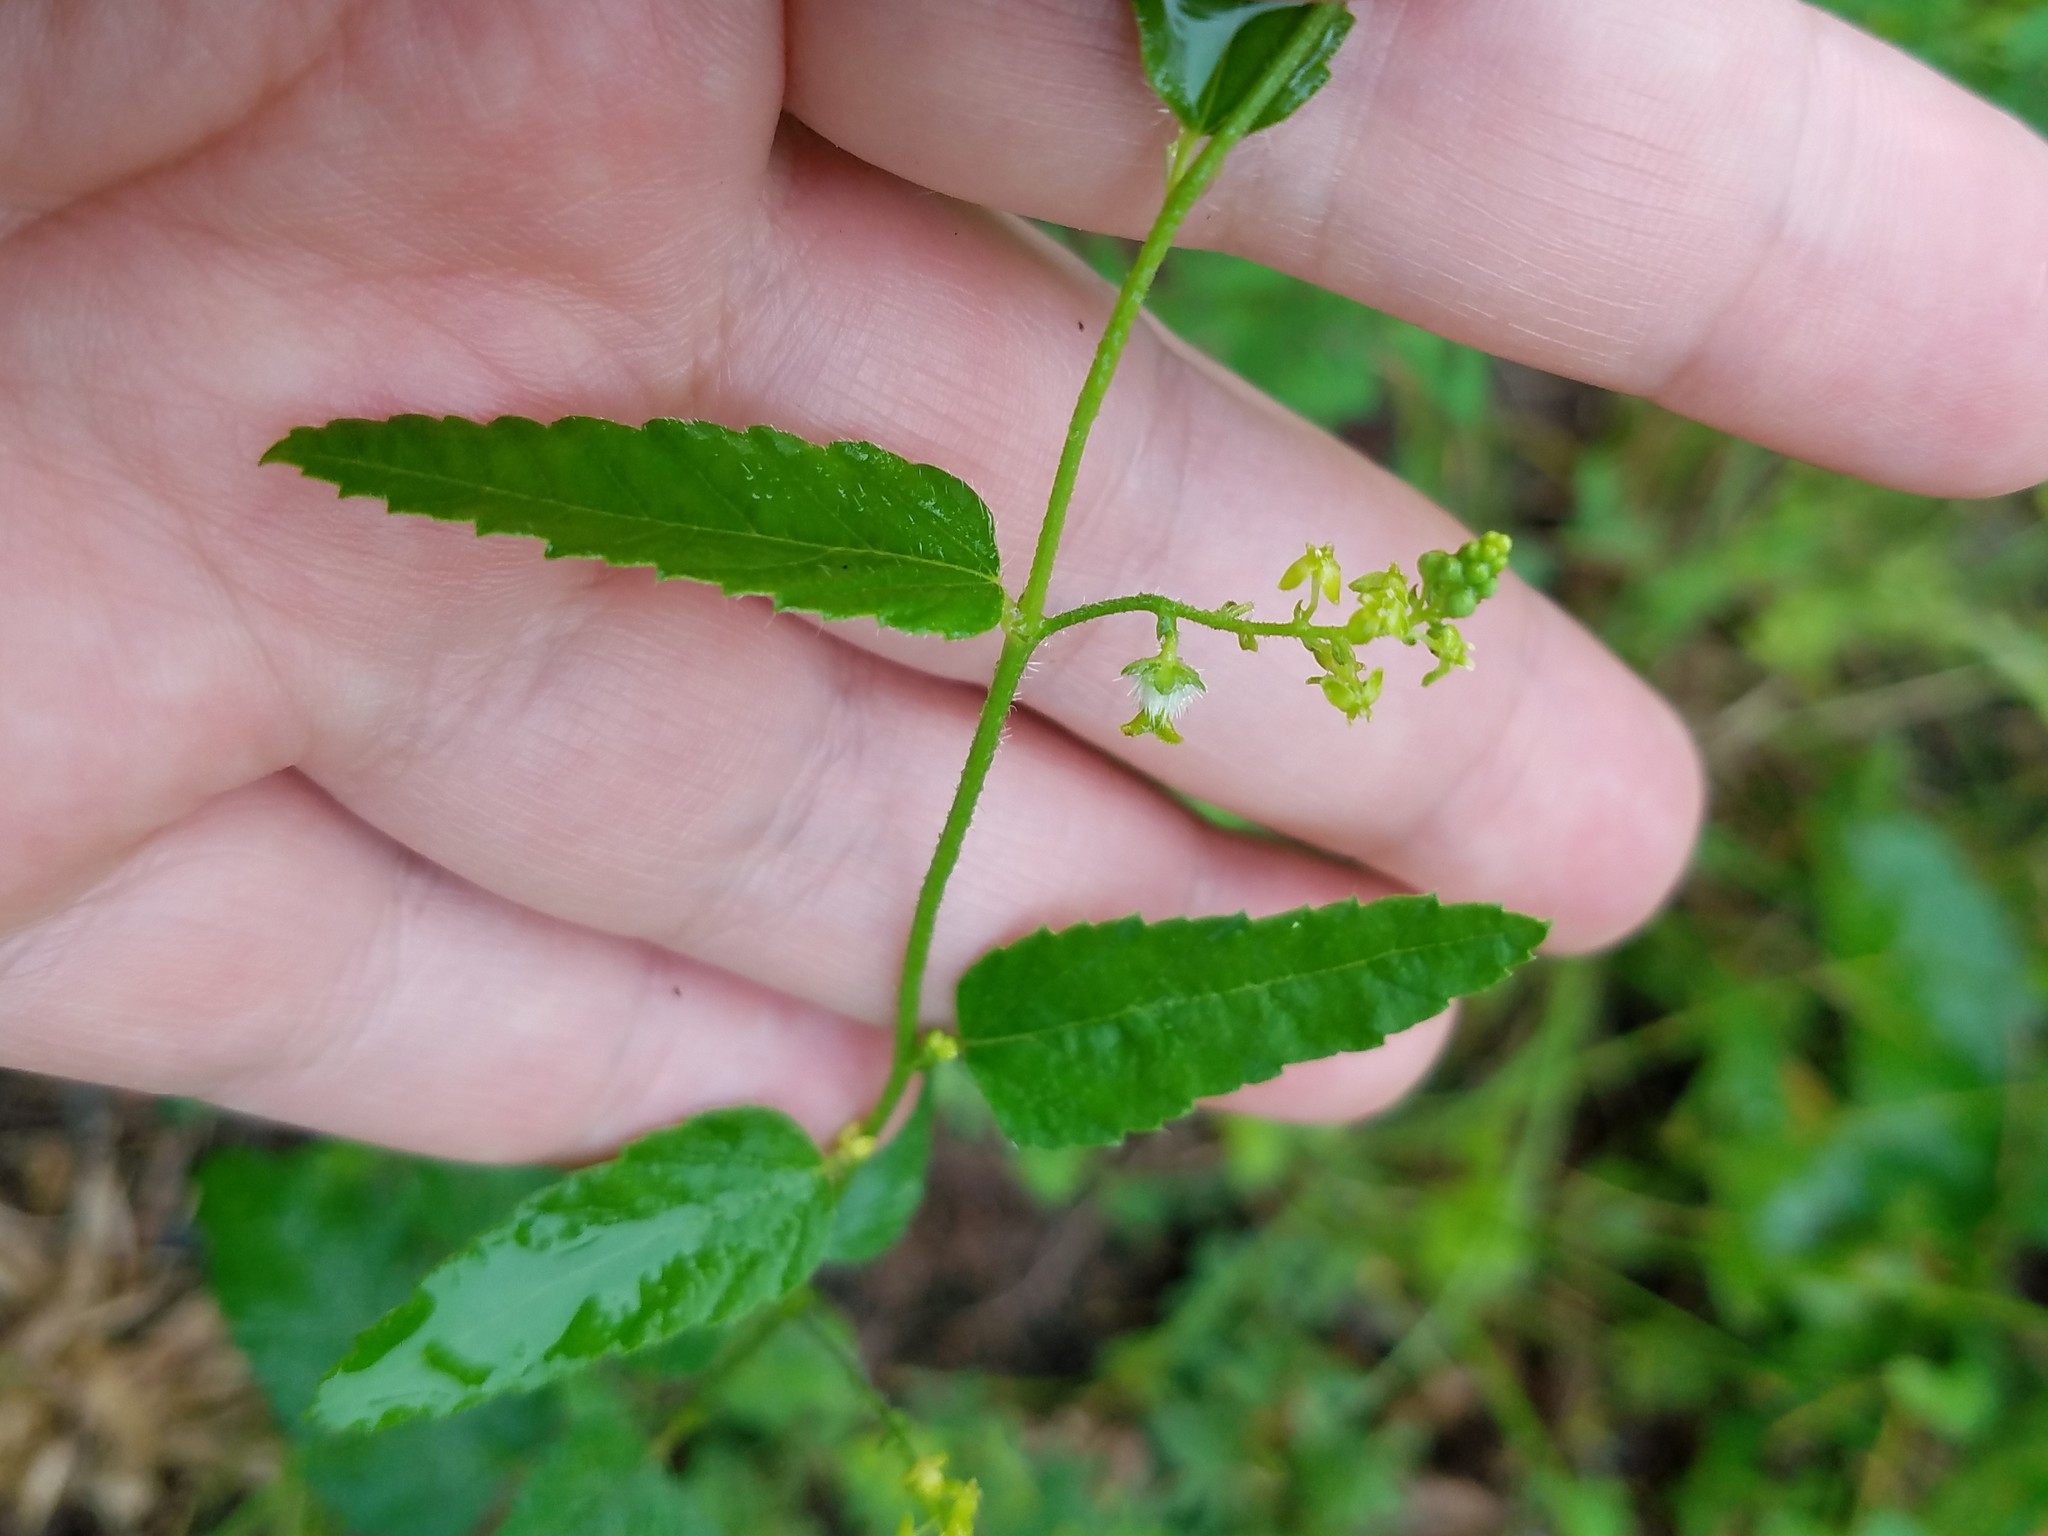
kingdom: Plantae
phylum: Tracheophyta
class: Magnoliopsida
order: Malpighiales
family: Euphorbiaceae
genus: Tragia
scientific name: Tragia urticifolia
